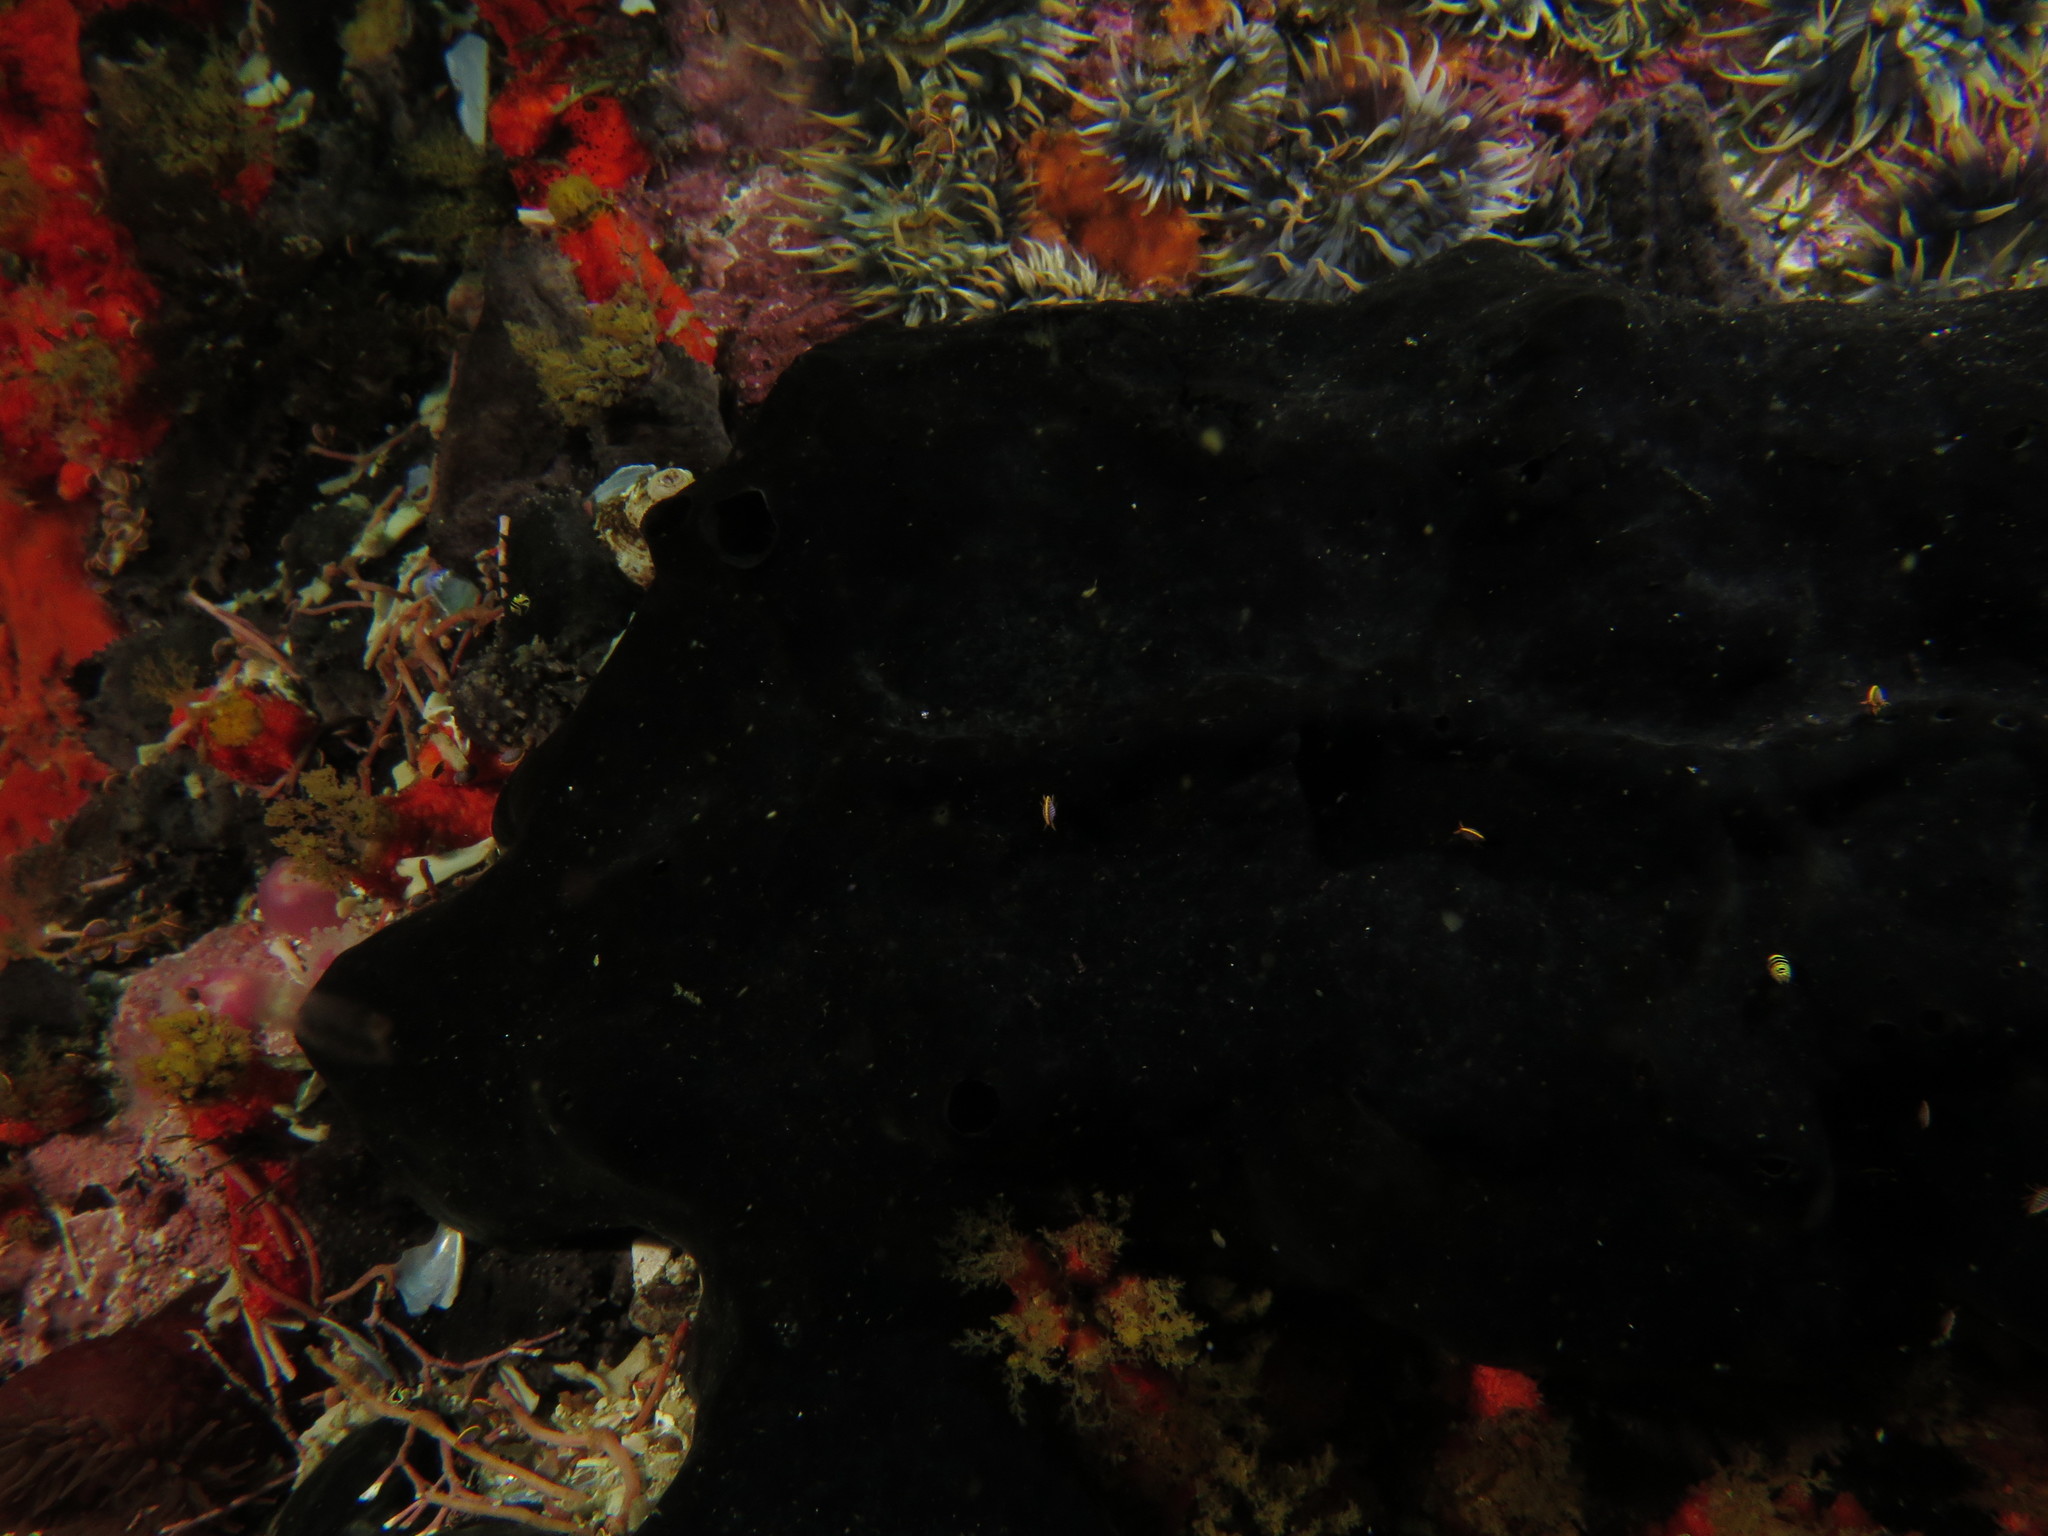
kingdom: Animalia
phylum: Porifera
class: Demospongiae
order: Suberitida
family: Suberitidae
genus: Suberites
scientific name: Suberites ficus
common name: Fig sponge
